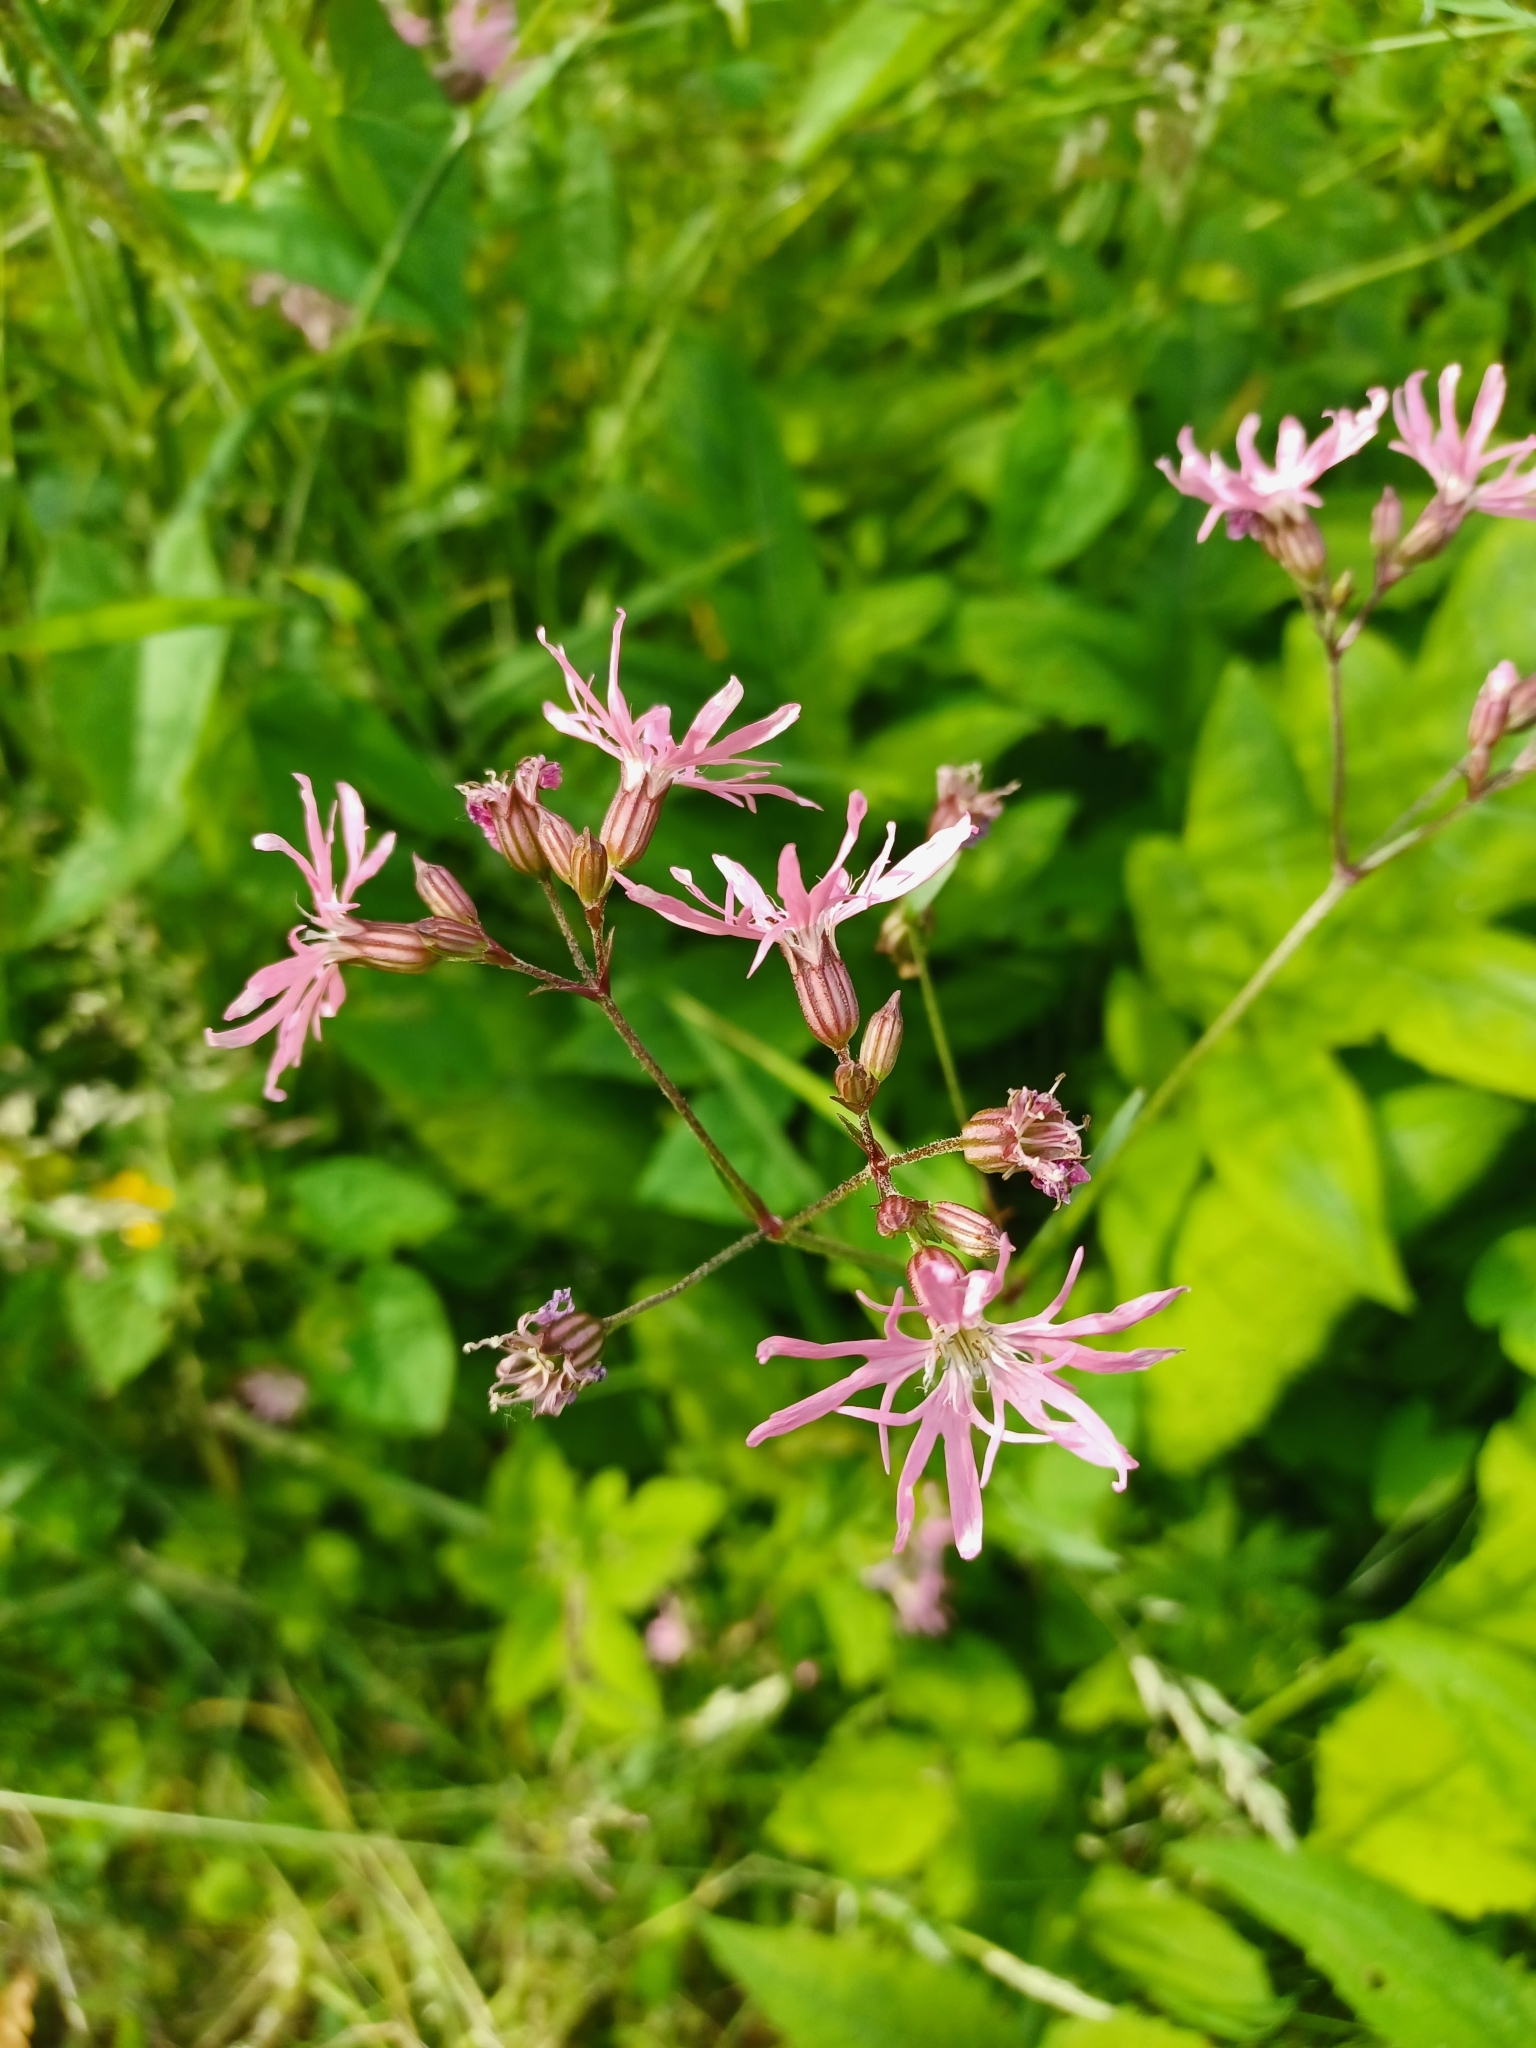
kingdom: Plantae
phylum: Tracheophyta
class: Magnoliopsida
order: Caryophyllales
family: Caryophyllaceae
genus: Silene
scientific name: Silene flos-cuculi
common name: Ragged-robin
